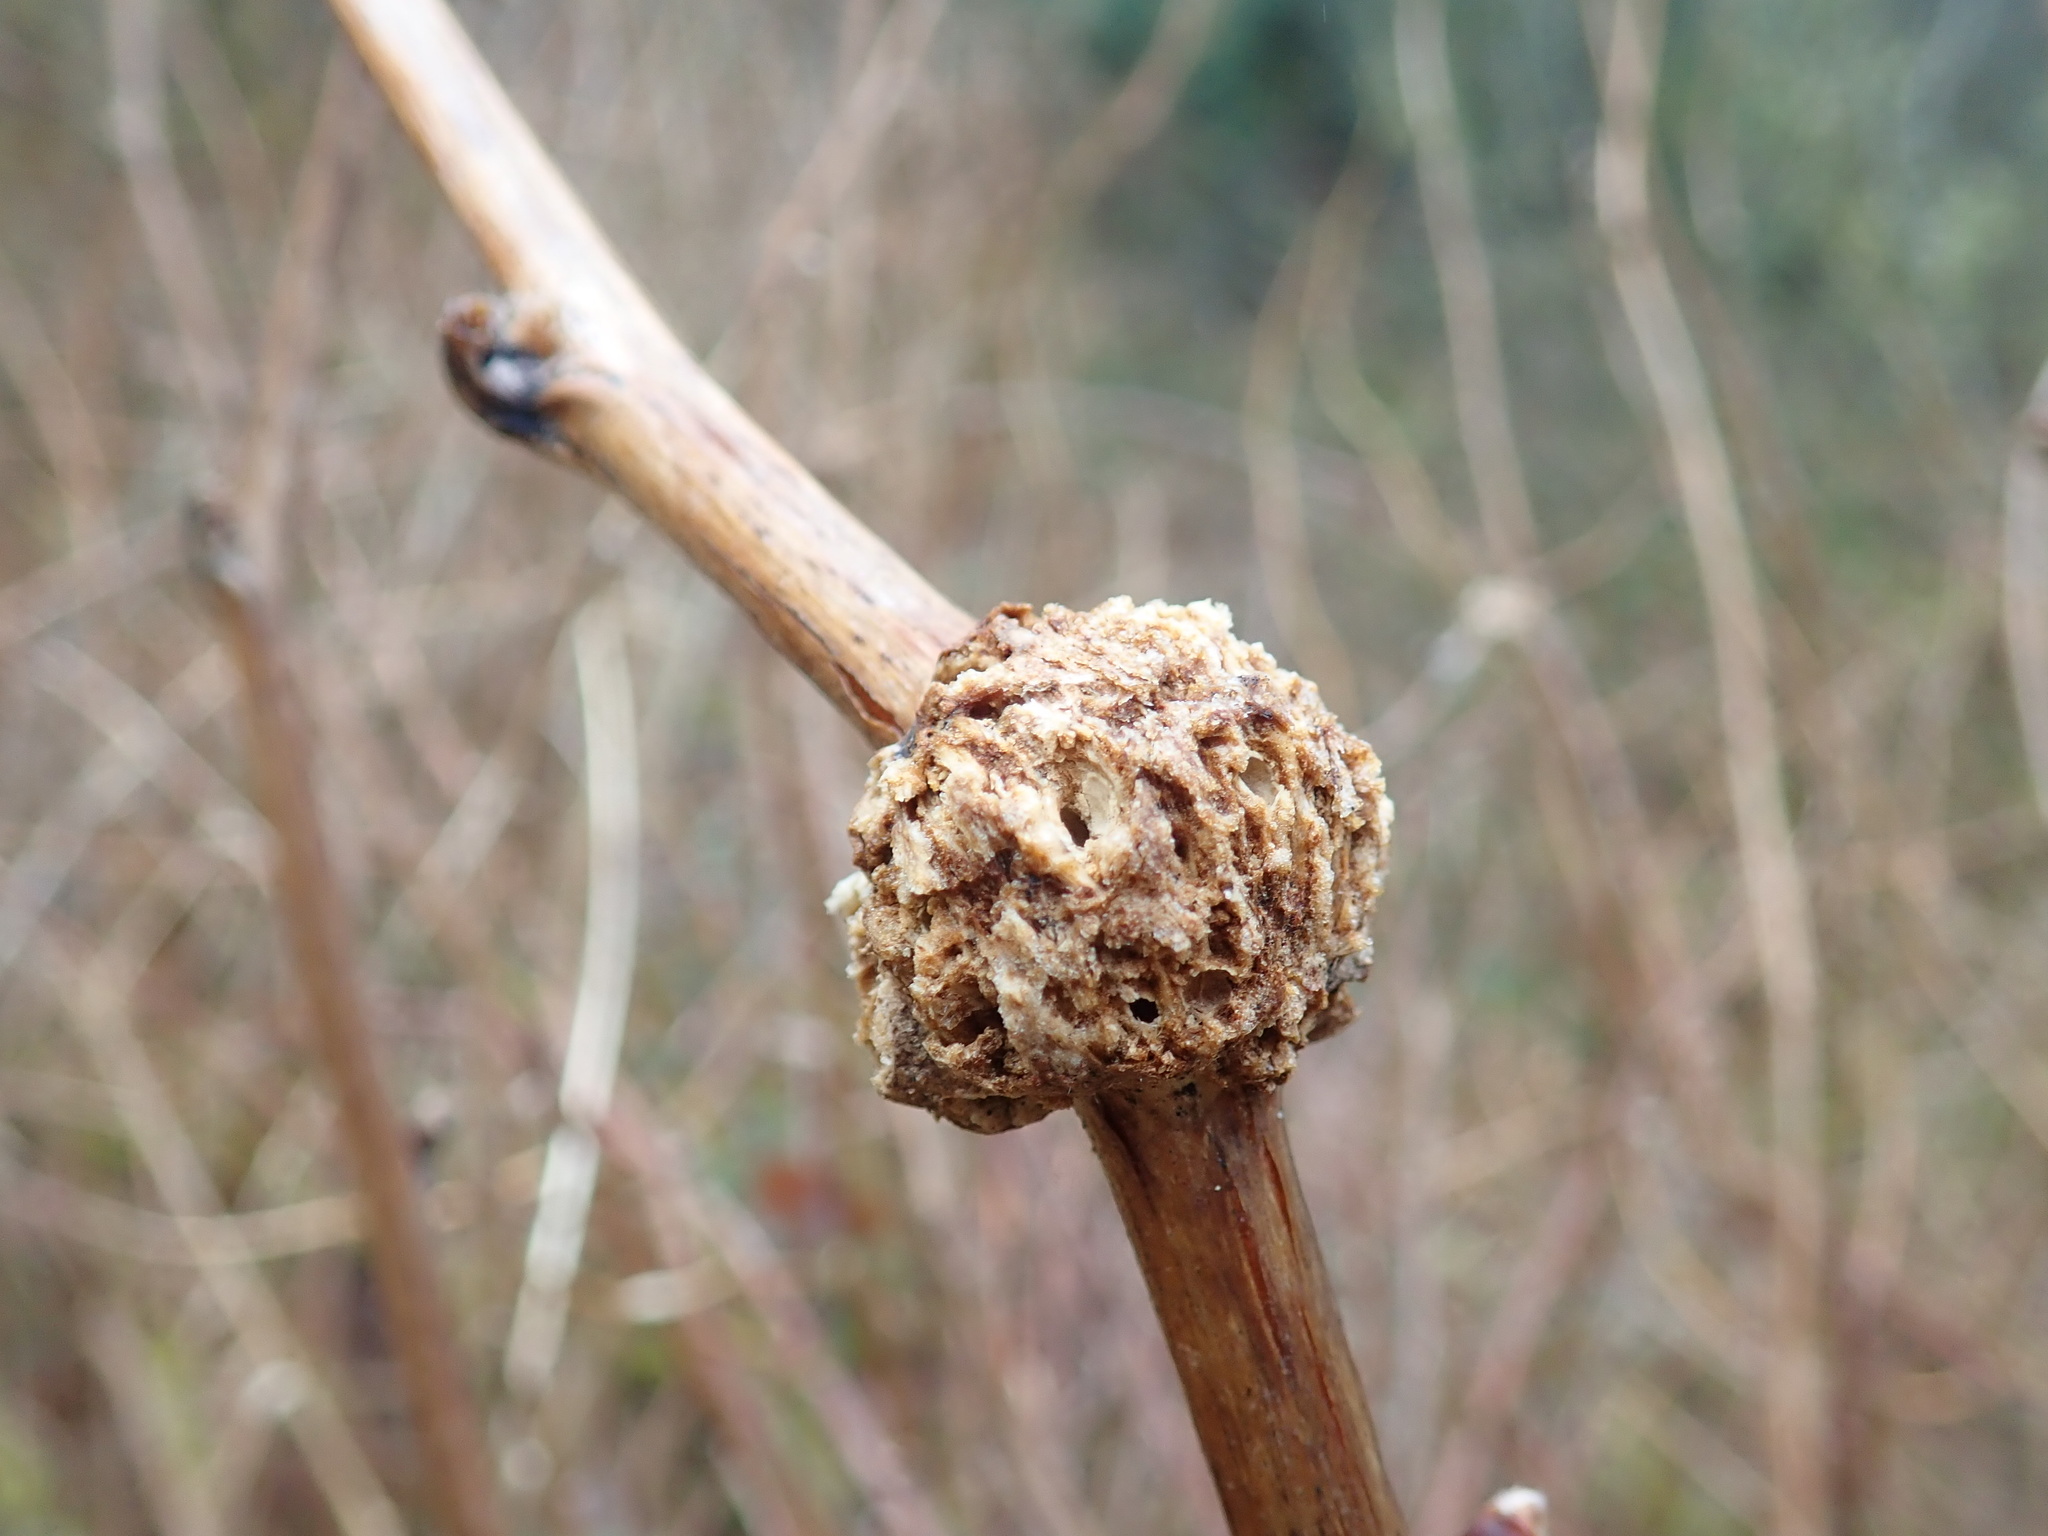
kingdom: Animalia
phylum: Arthropoda
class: Insecta
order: Hymenoptera
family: Cynipidae
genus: Diastrophus
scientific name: Diastrophus
